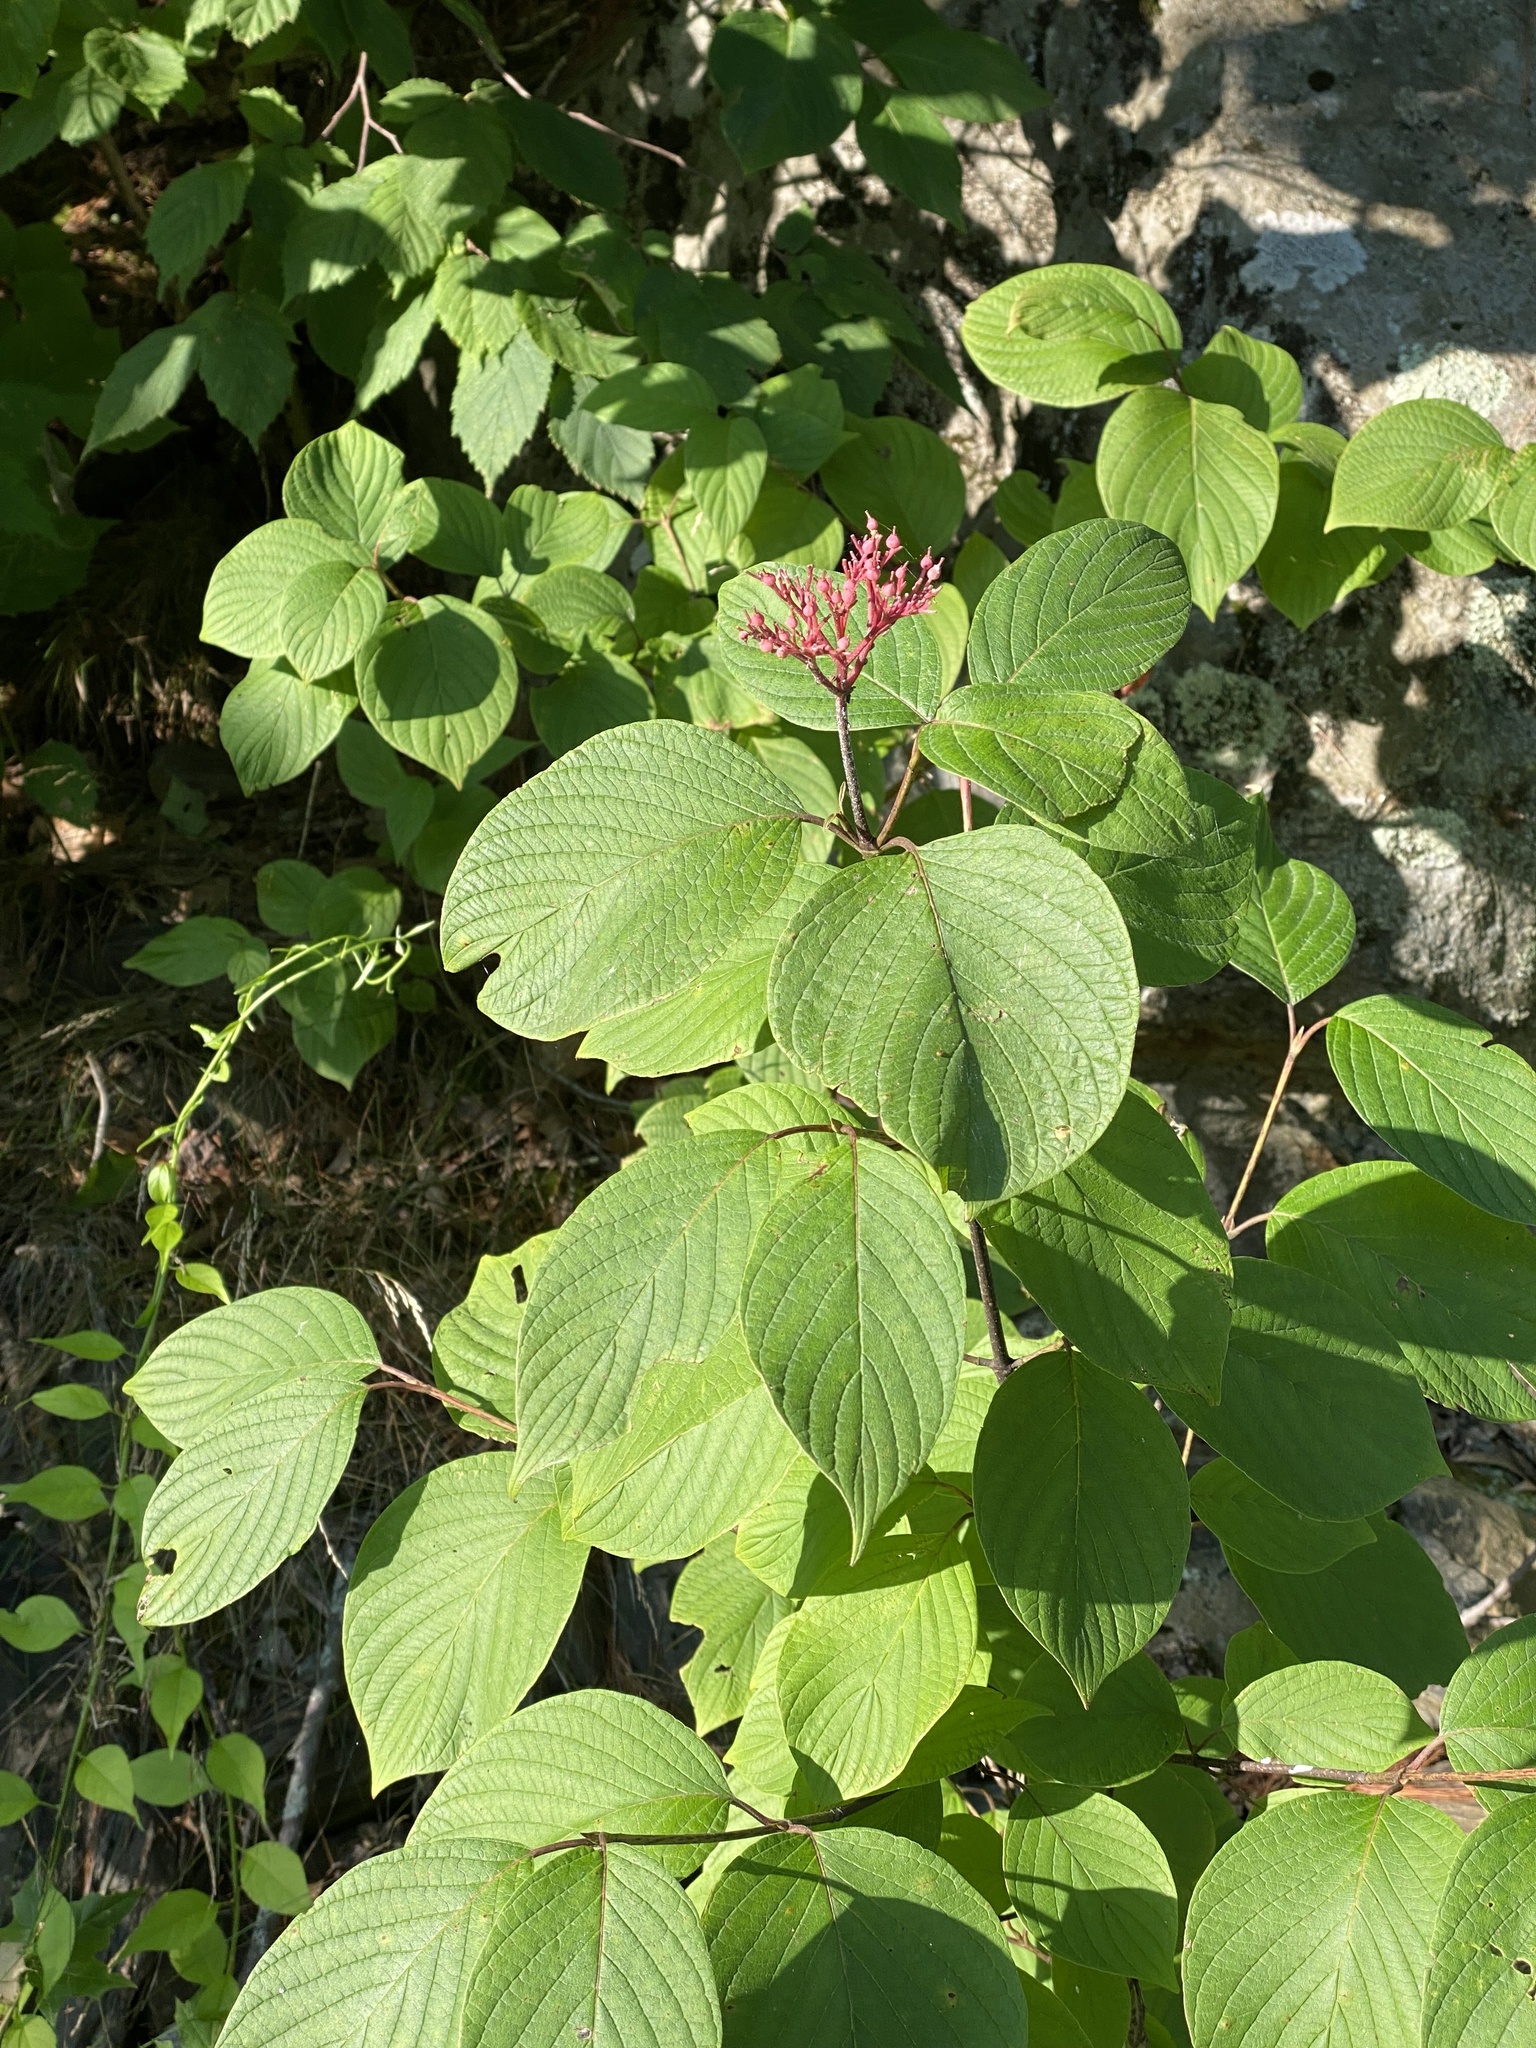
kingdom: Plantae
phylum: Tracheophyta
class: Magnoliopsida
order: Cornales
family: Cornaceae
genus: Cornus
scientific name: Cornus rugosa
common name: Round-leaf dogwood
